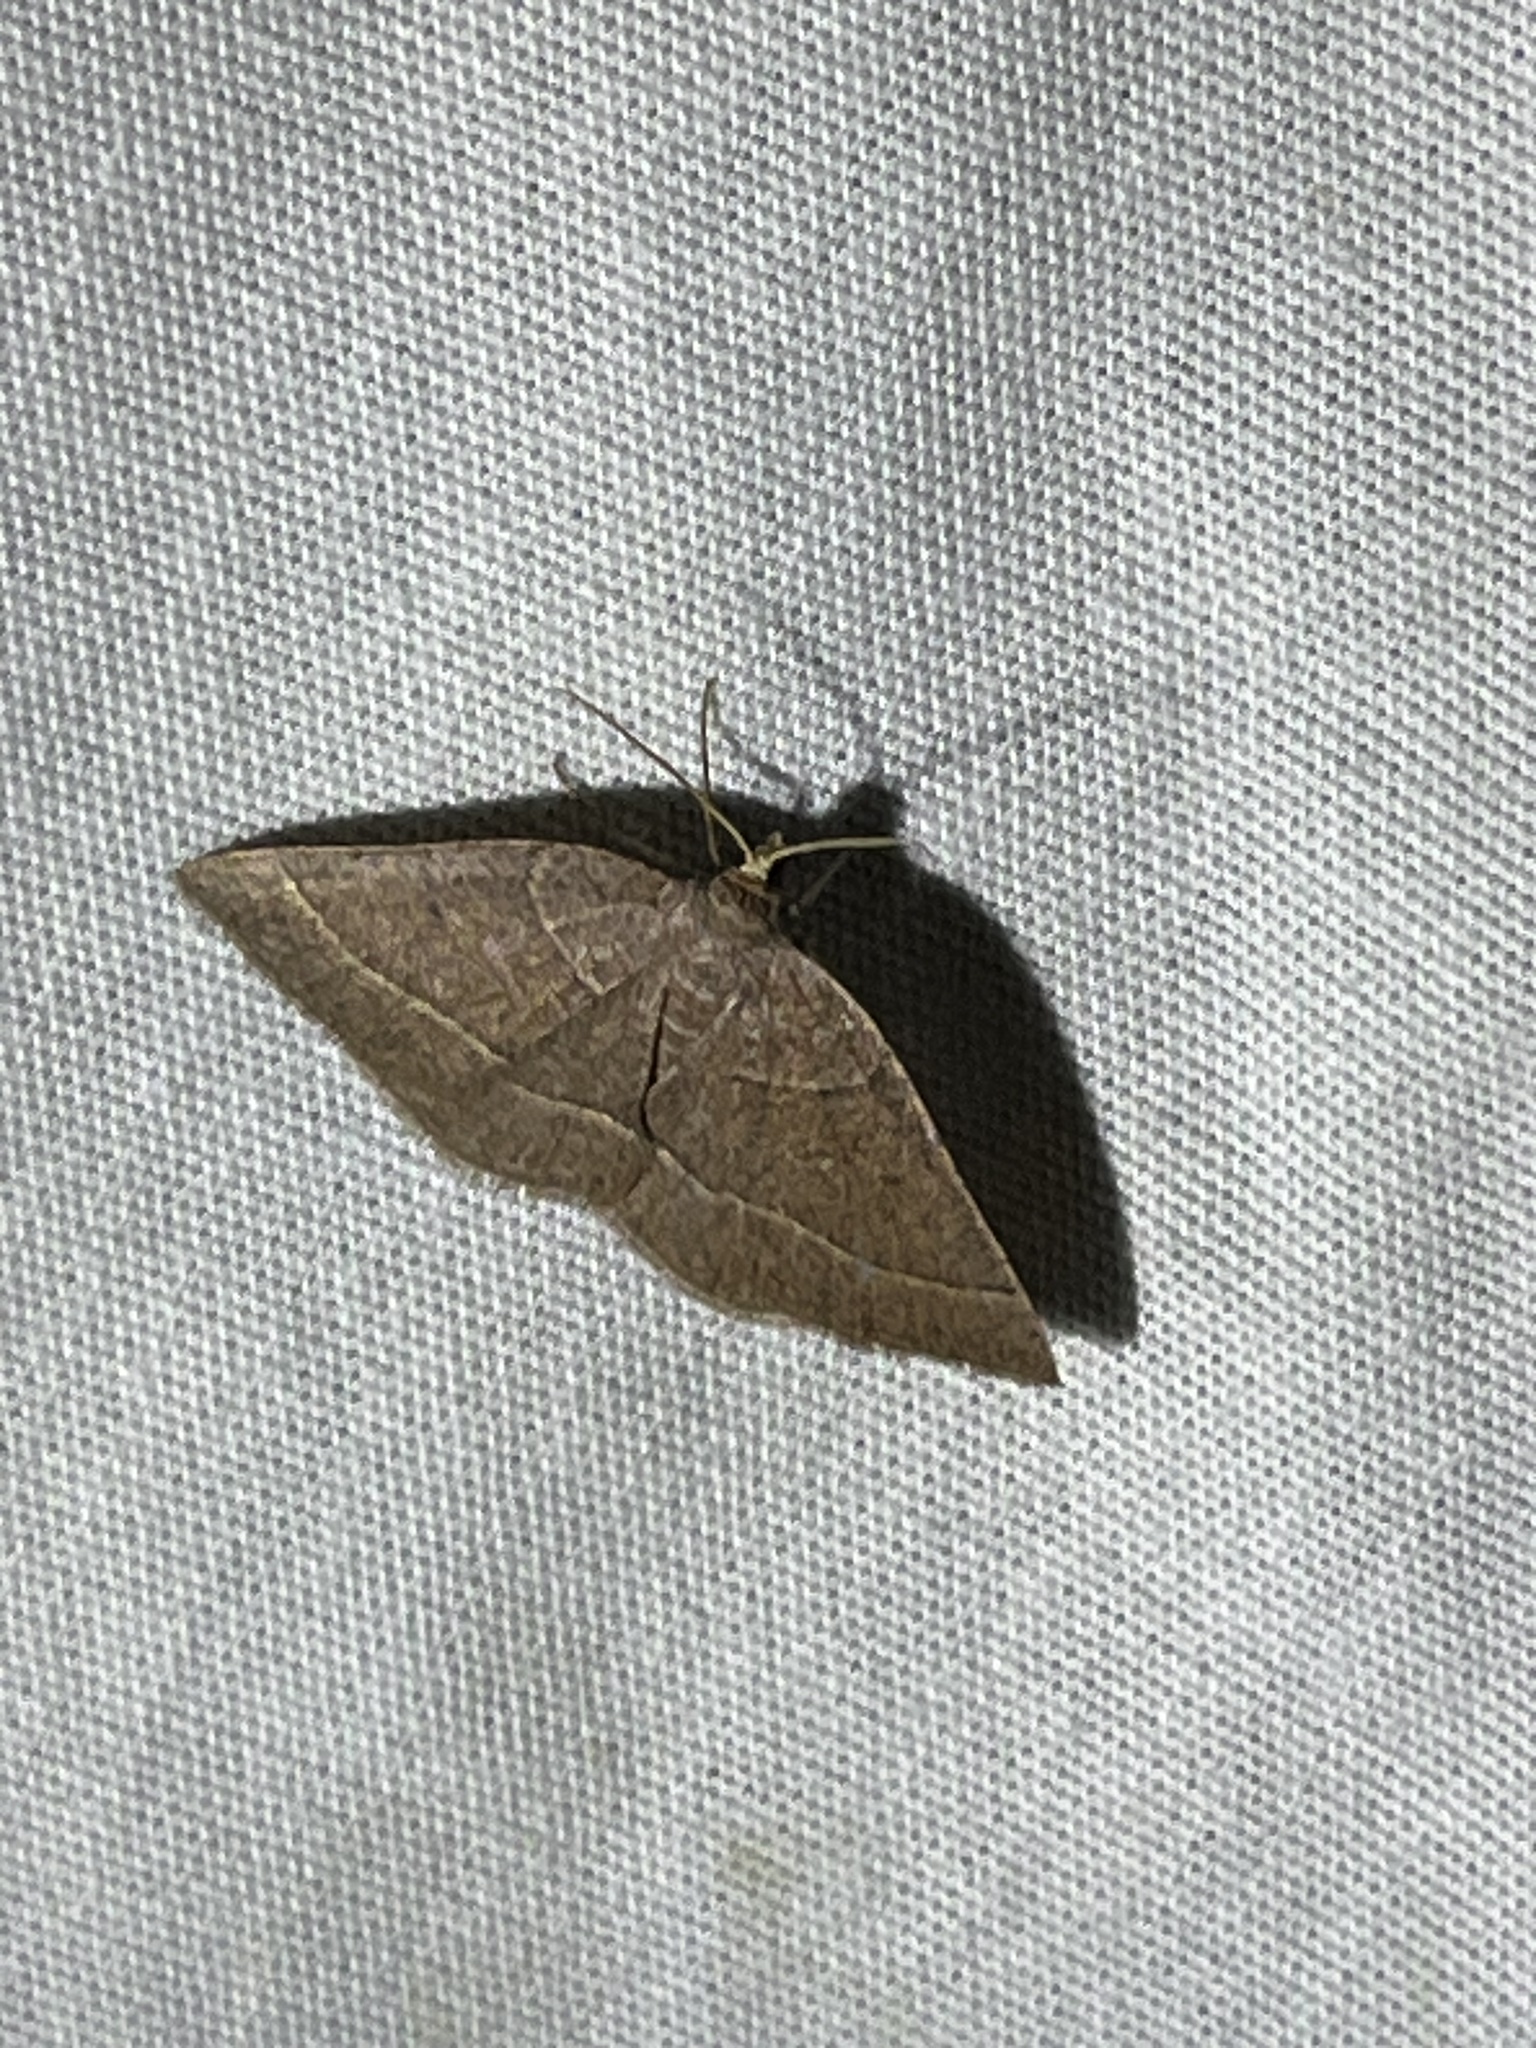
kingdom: Animalia
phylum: Arthropoda
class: Insecta
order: Lepidoptera
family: Geometridae
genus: Episemasia
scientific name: Episemasia cervinaria
